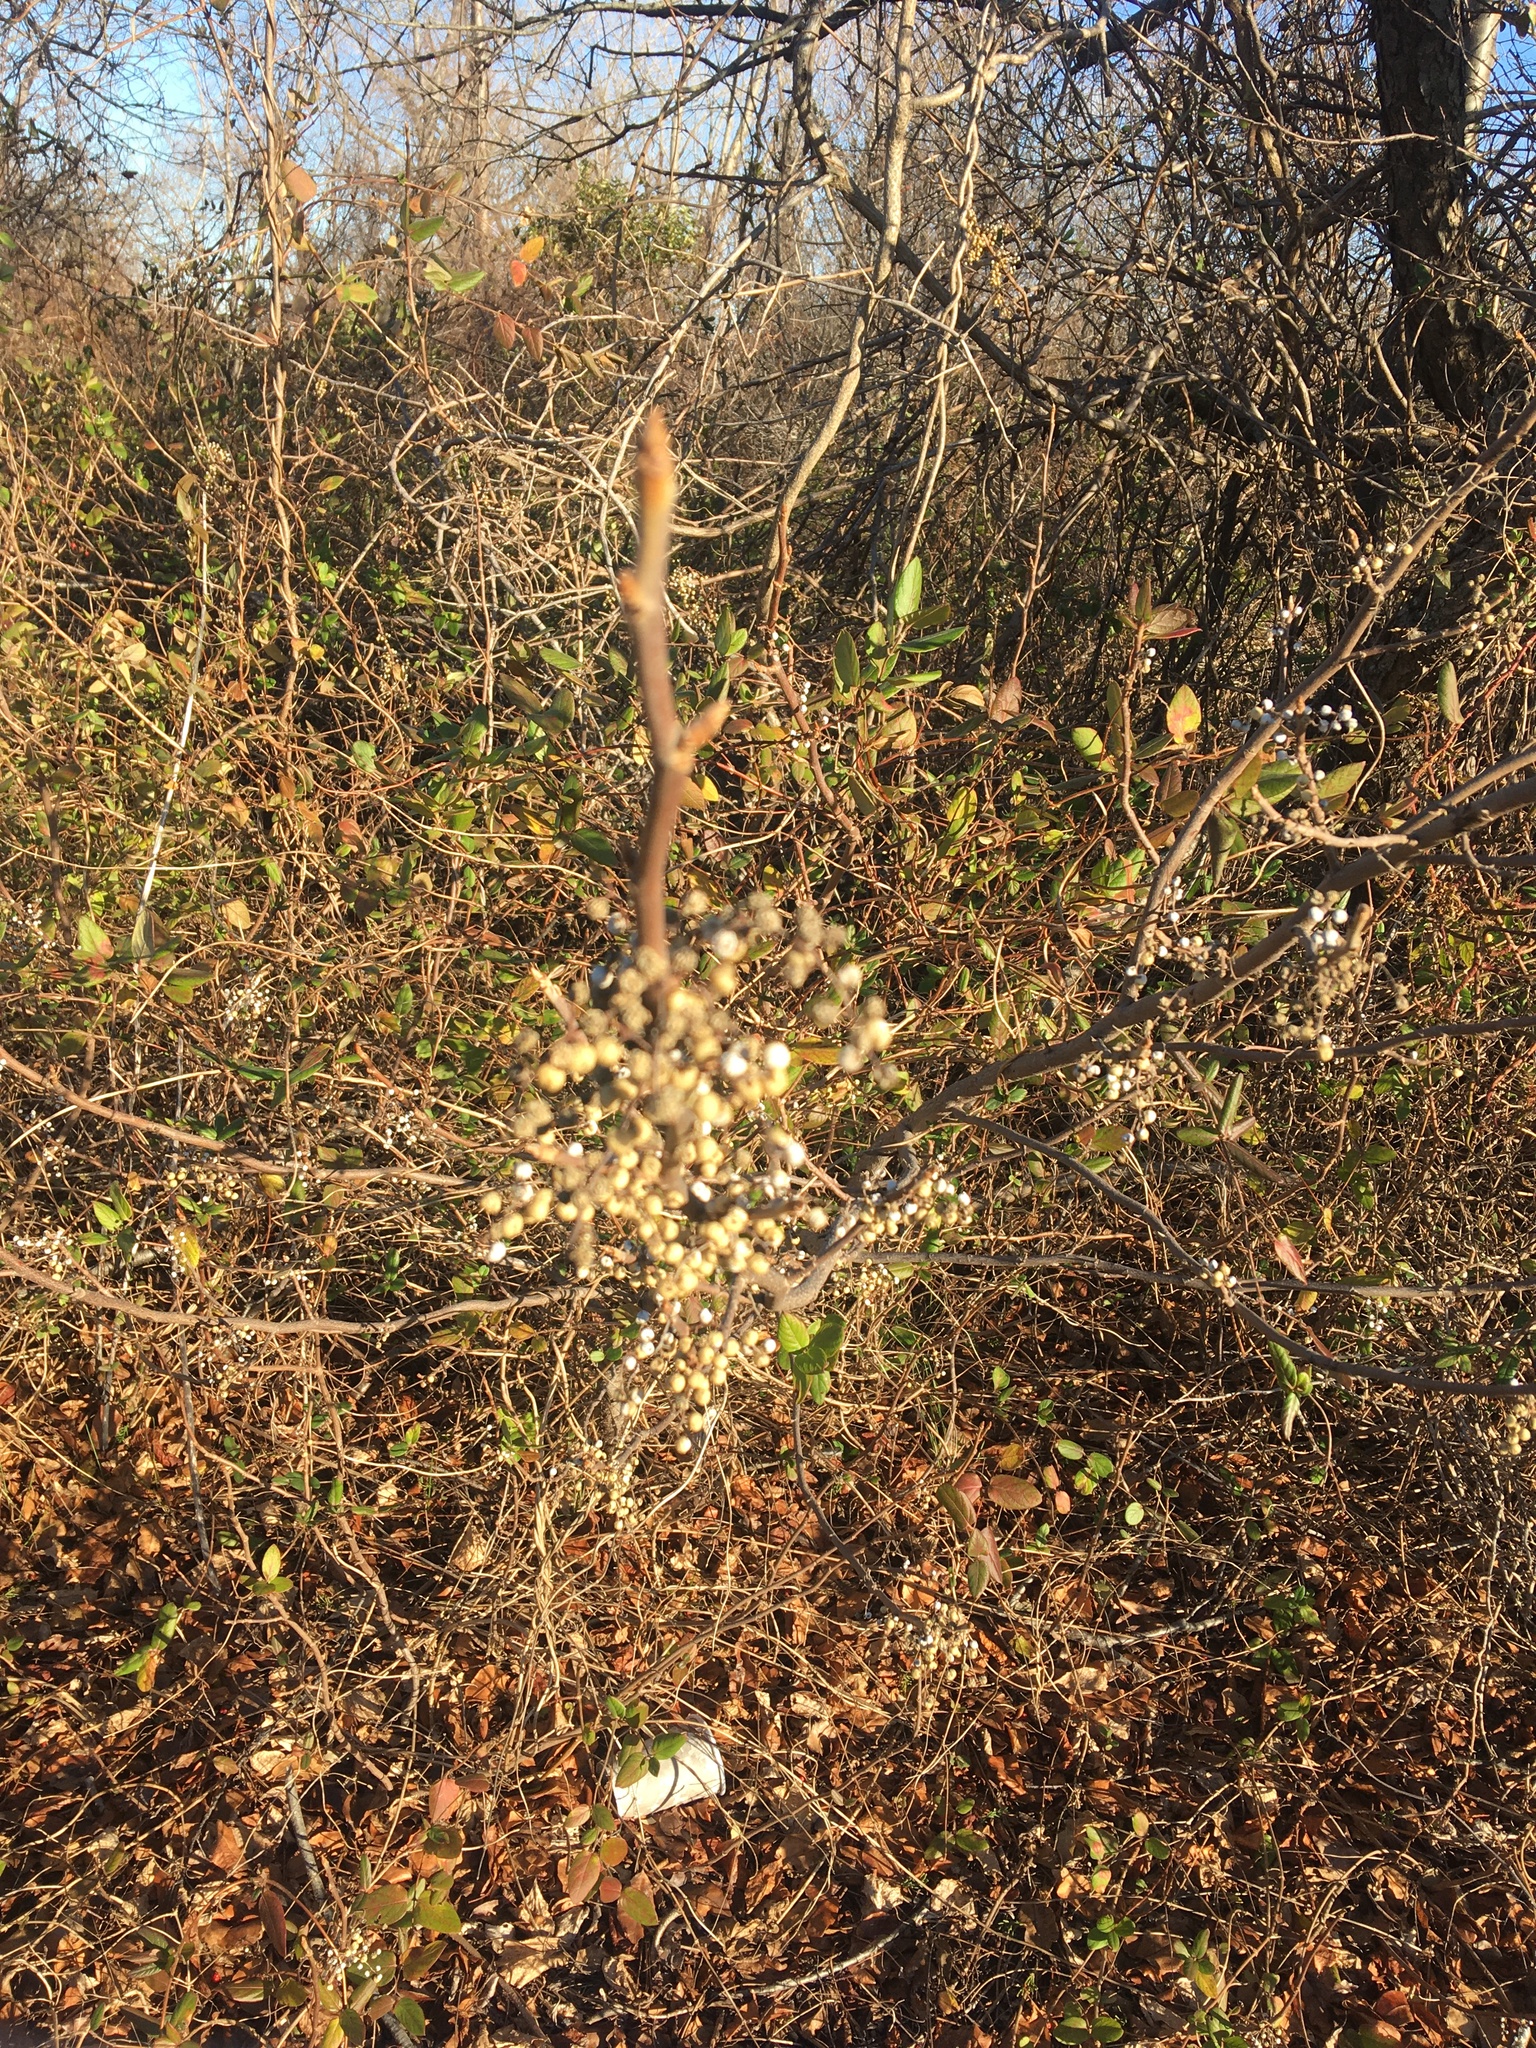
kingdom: Plantae
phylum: Tracheophyta
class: Magnoliopsida
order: Sapindales
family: Anacardiaceae
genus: Toxicodendron
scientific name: Toxicodendron radicans
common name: Poison ivy
